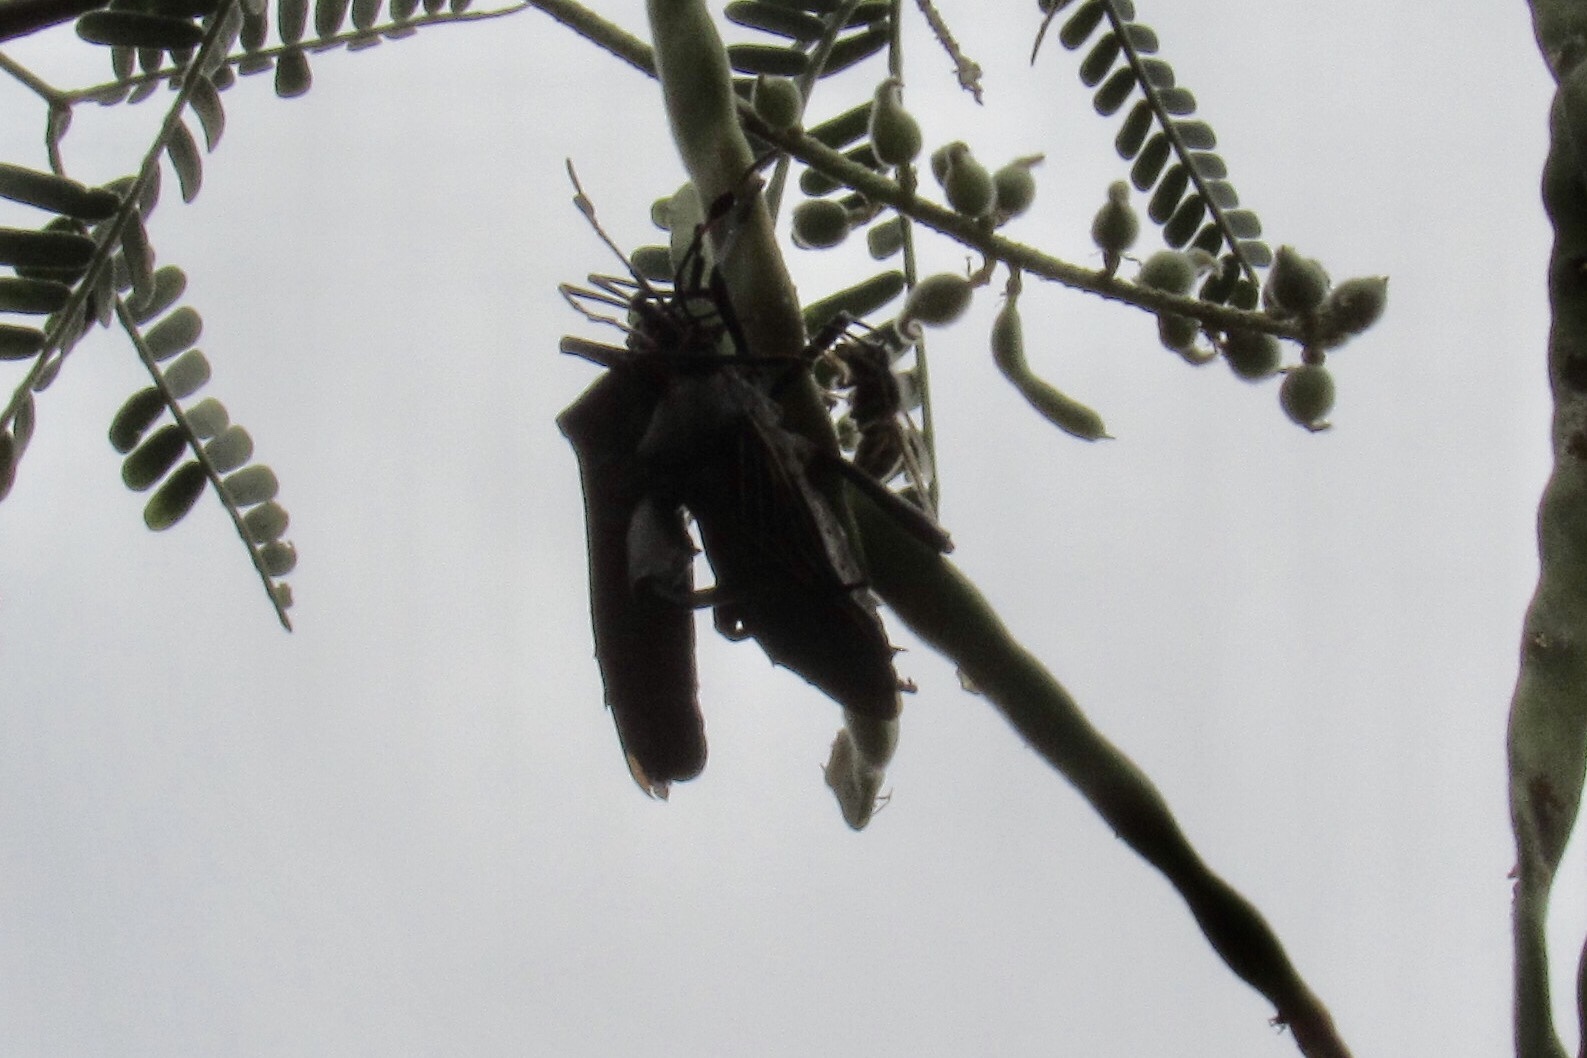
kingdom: Animalia
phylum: Arthropoda
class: Insecta
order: Hemiptera
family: Coreidae
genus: Thasus
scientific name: Thasus neocalifornicus
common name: Giant mesquite bug
